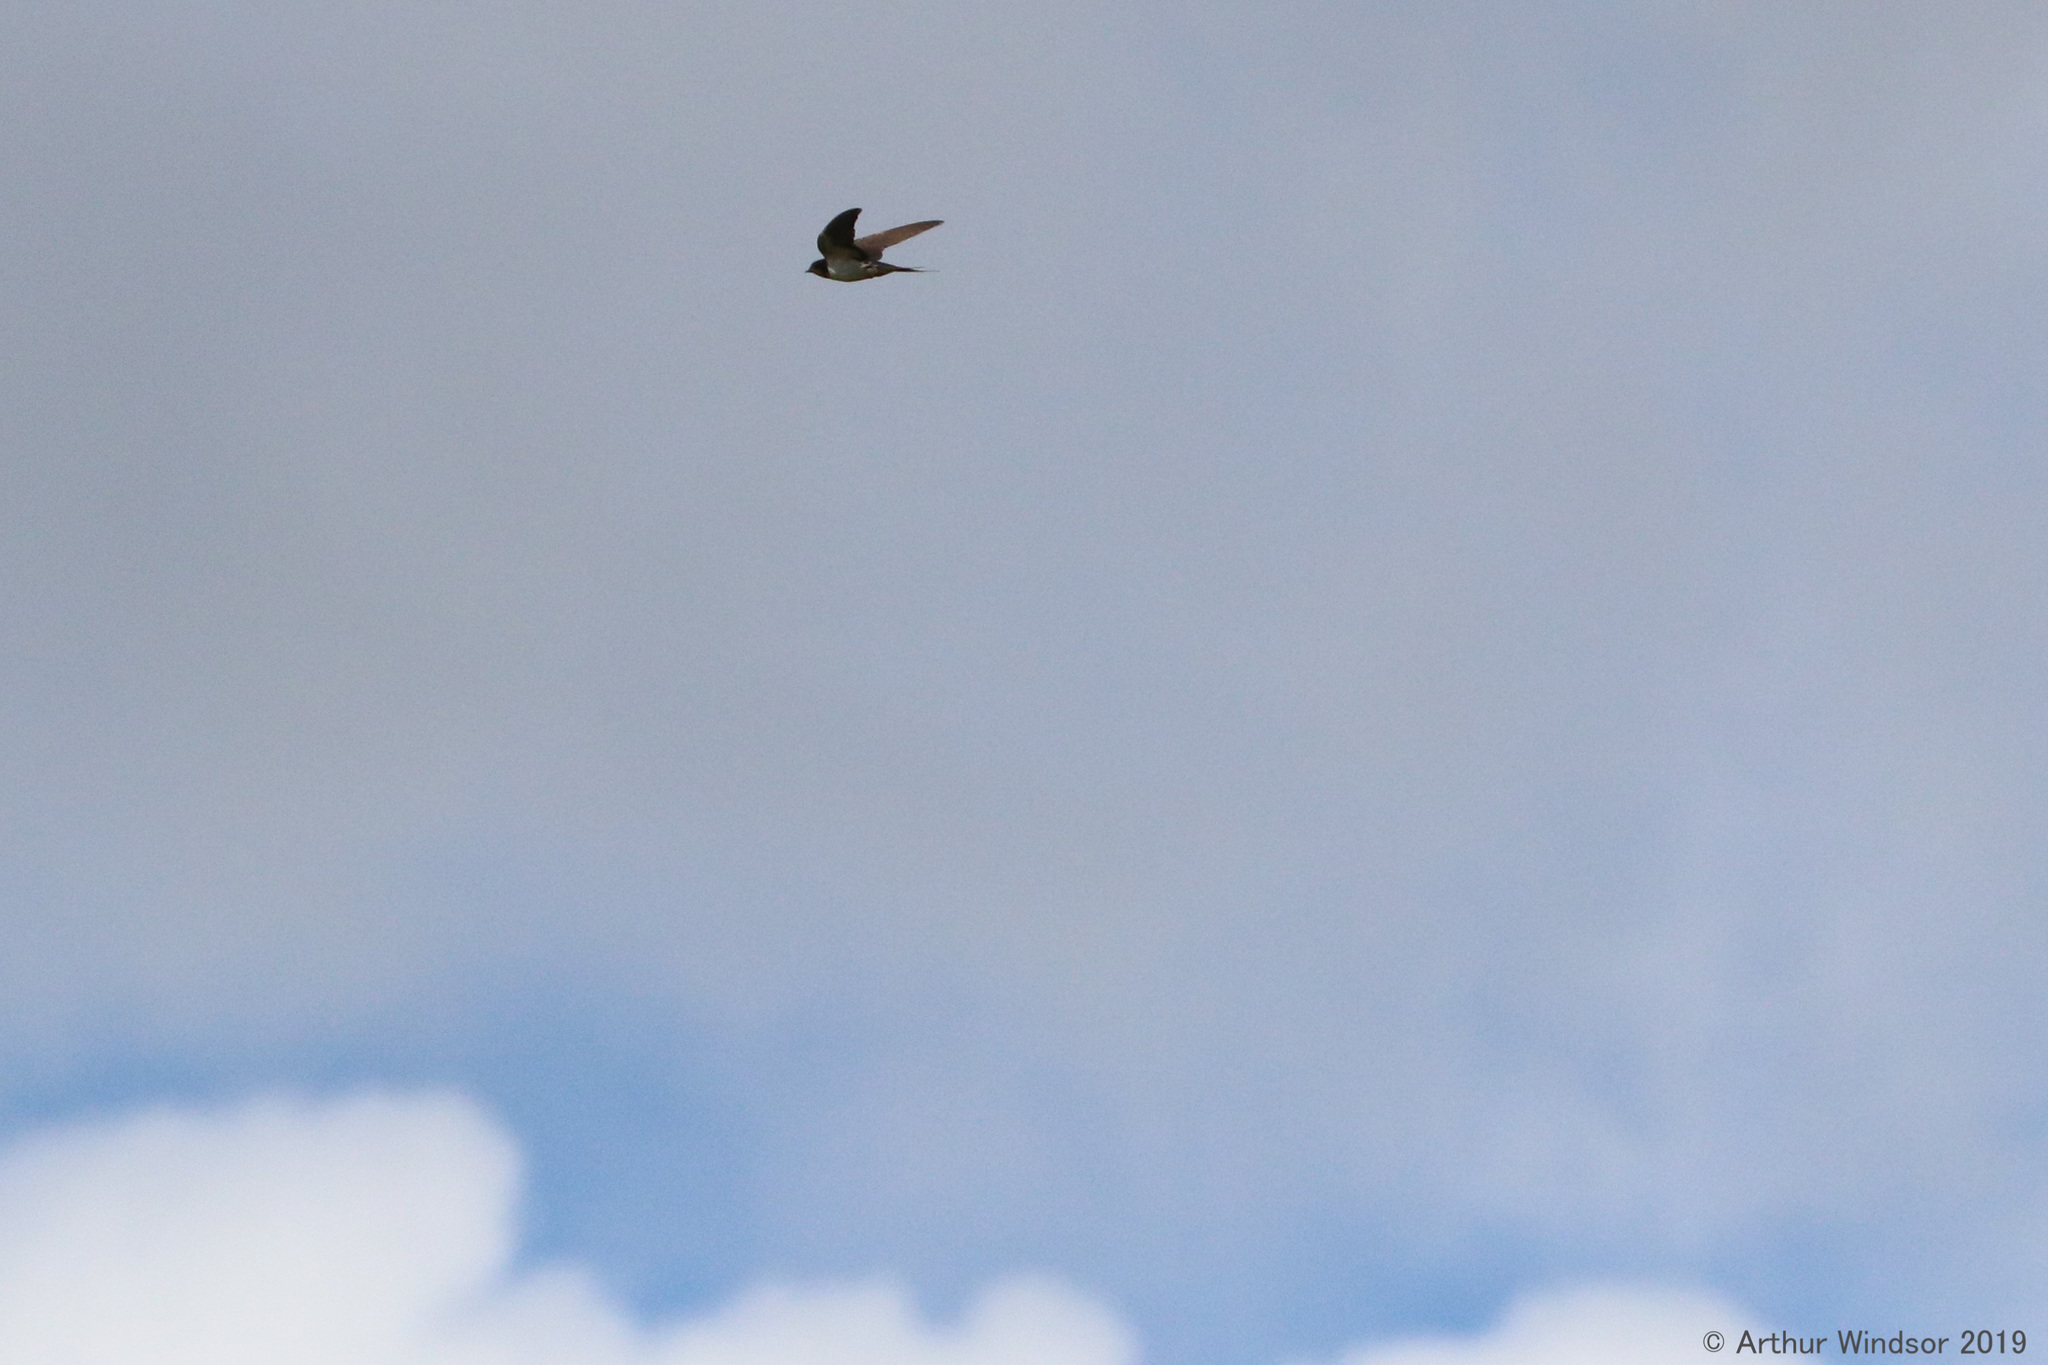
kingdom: Animalia
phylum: Chordata
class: Aves
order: Passeriformes
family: Hirundinidae
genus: Hirundo
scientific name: Hirundo rustica
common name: Barn swallow
